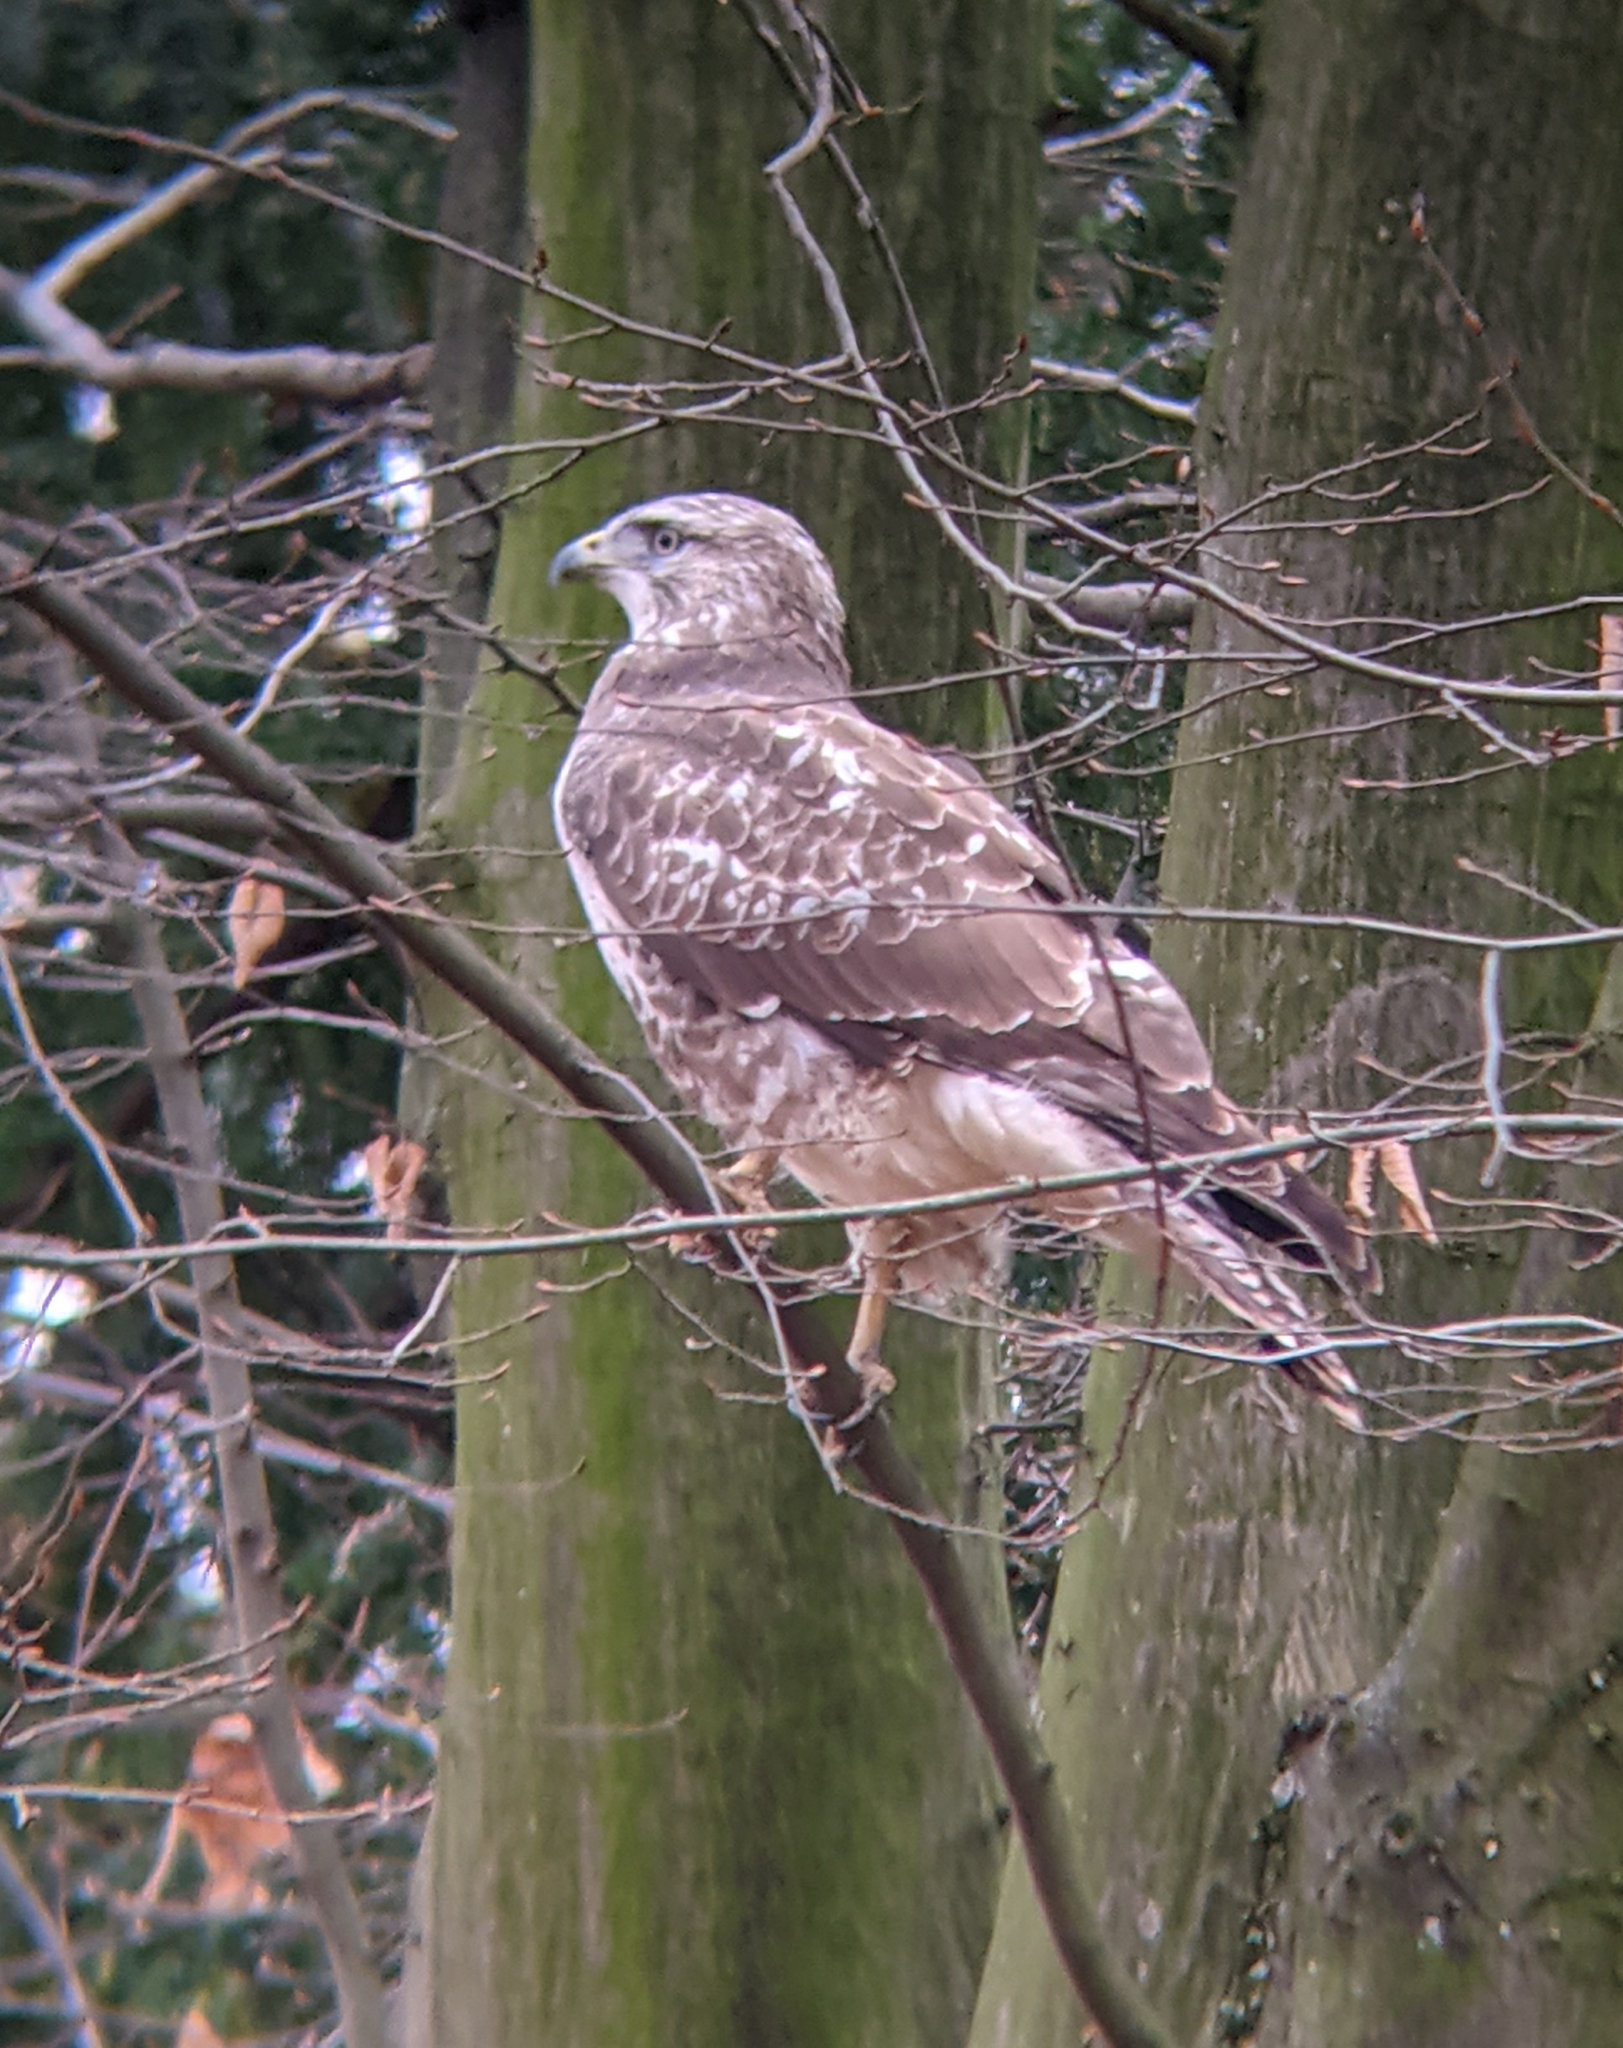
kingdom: Animalia
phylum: Chordata
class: Aves
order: Accipitriformes
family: Accipitridae
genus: Buteo
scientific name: Buteo buteo
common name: Common buzzard
